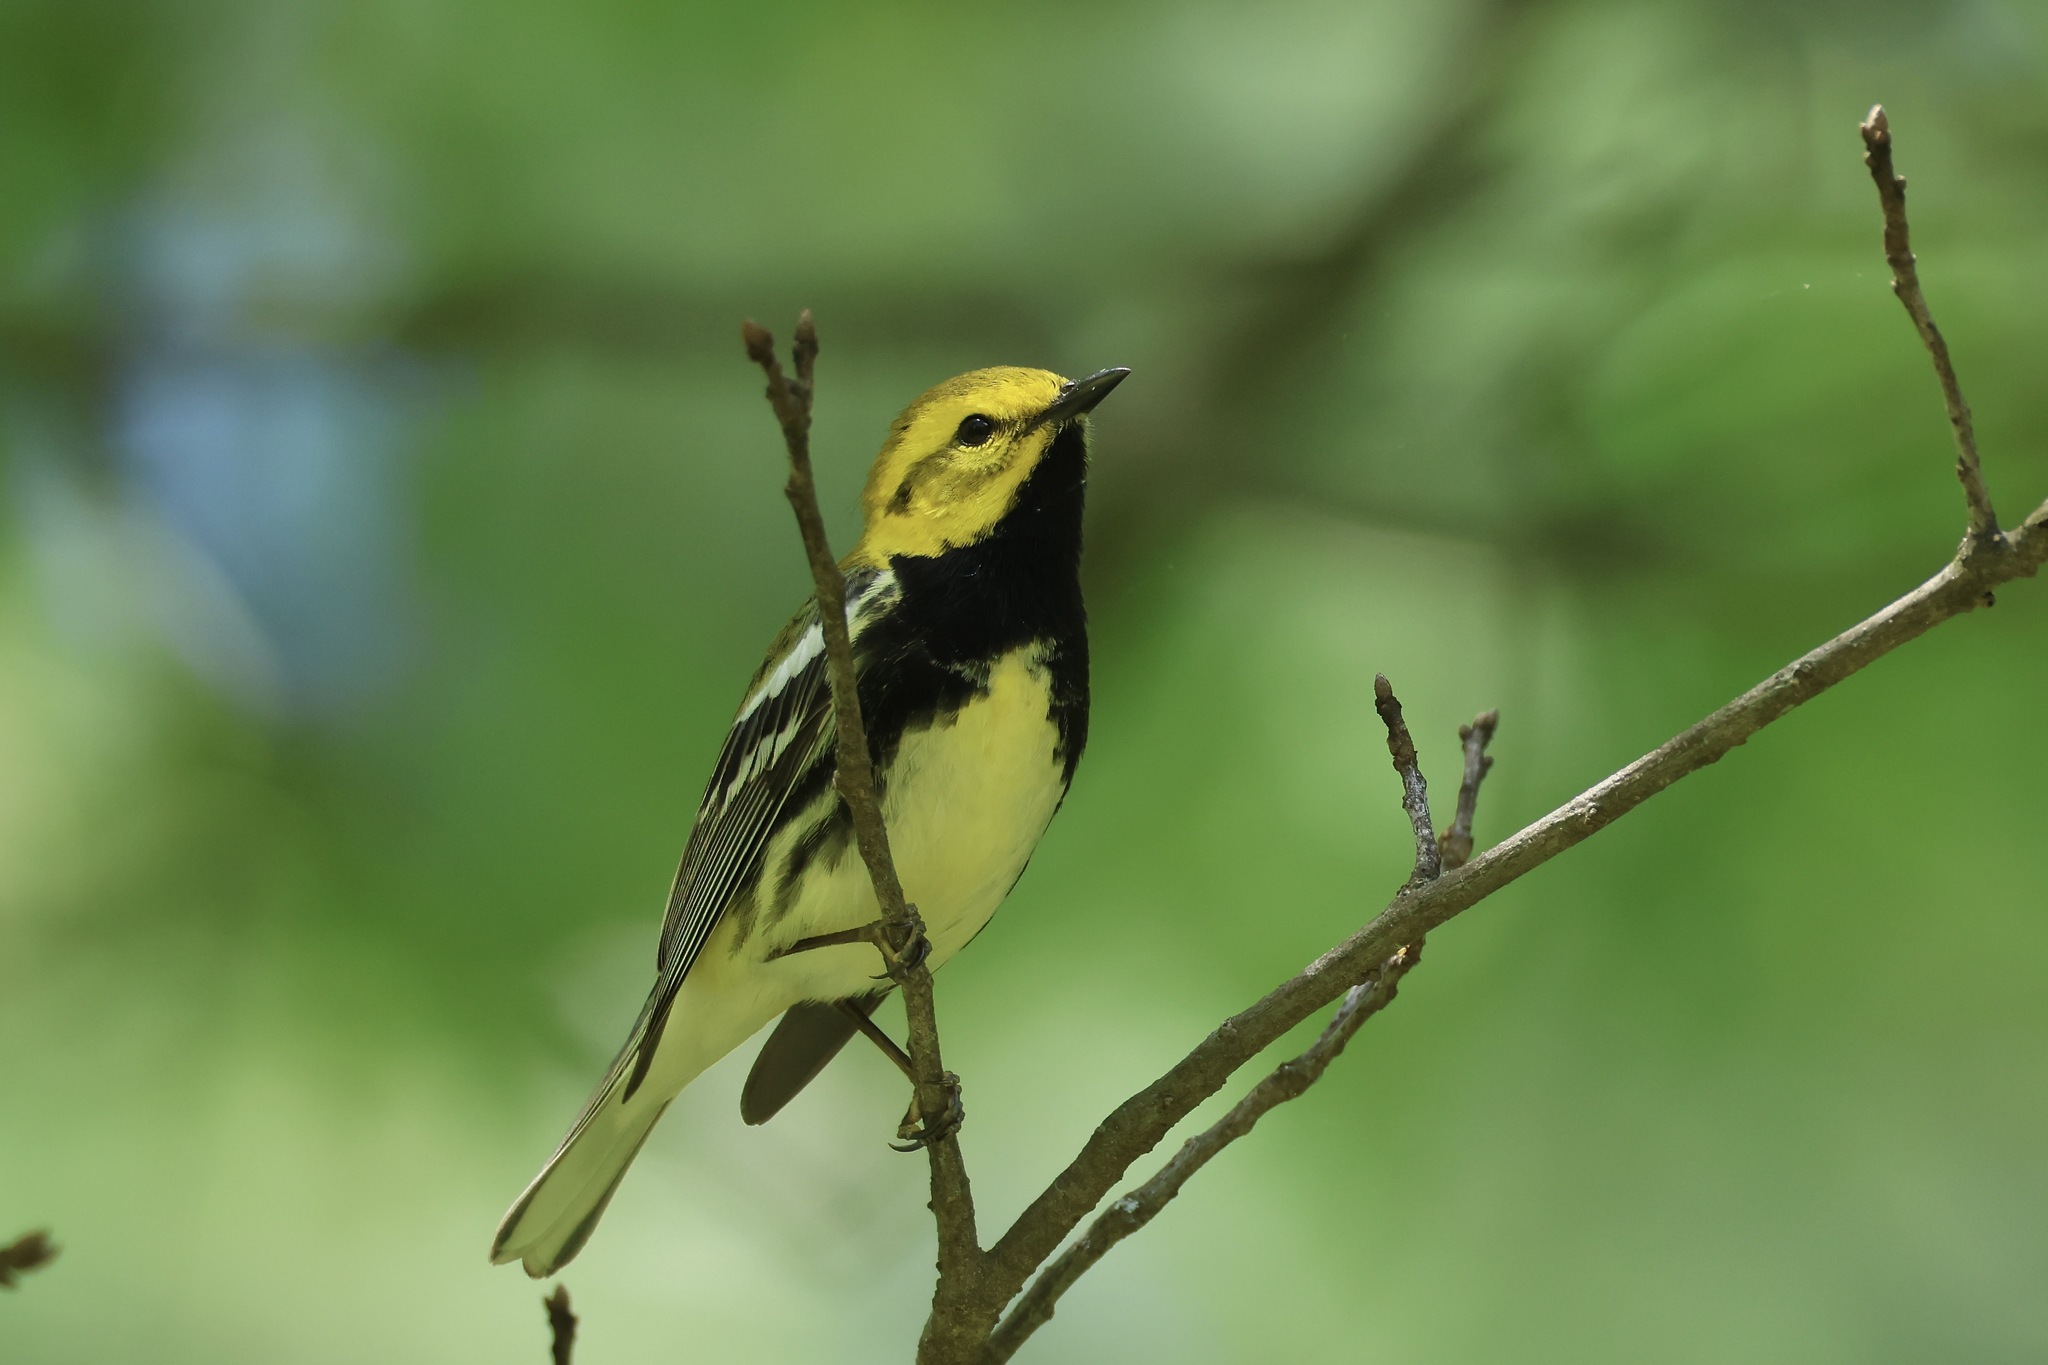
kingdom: Animalia
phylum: Chordata
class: Aves
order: Passeriformes
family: Parulidae
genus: Setophaga
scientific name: Setophaga virens
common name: Black-throated green warbler
